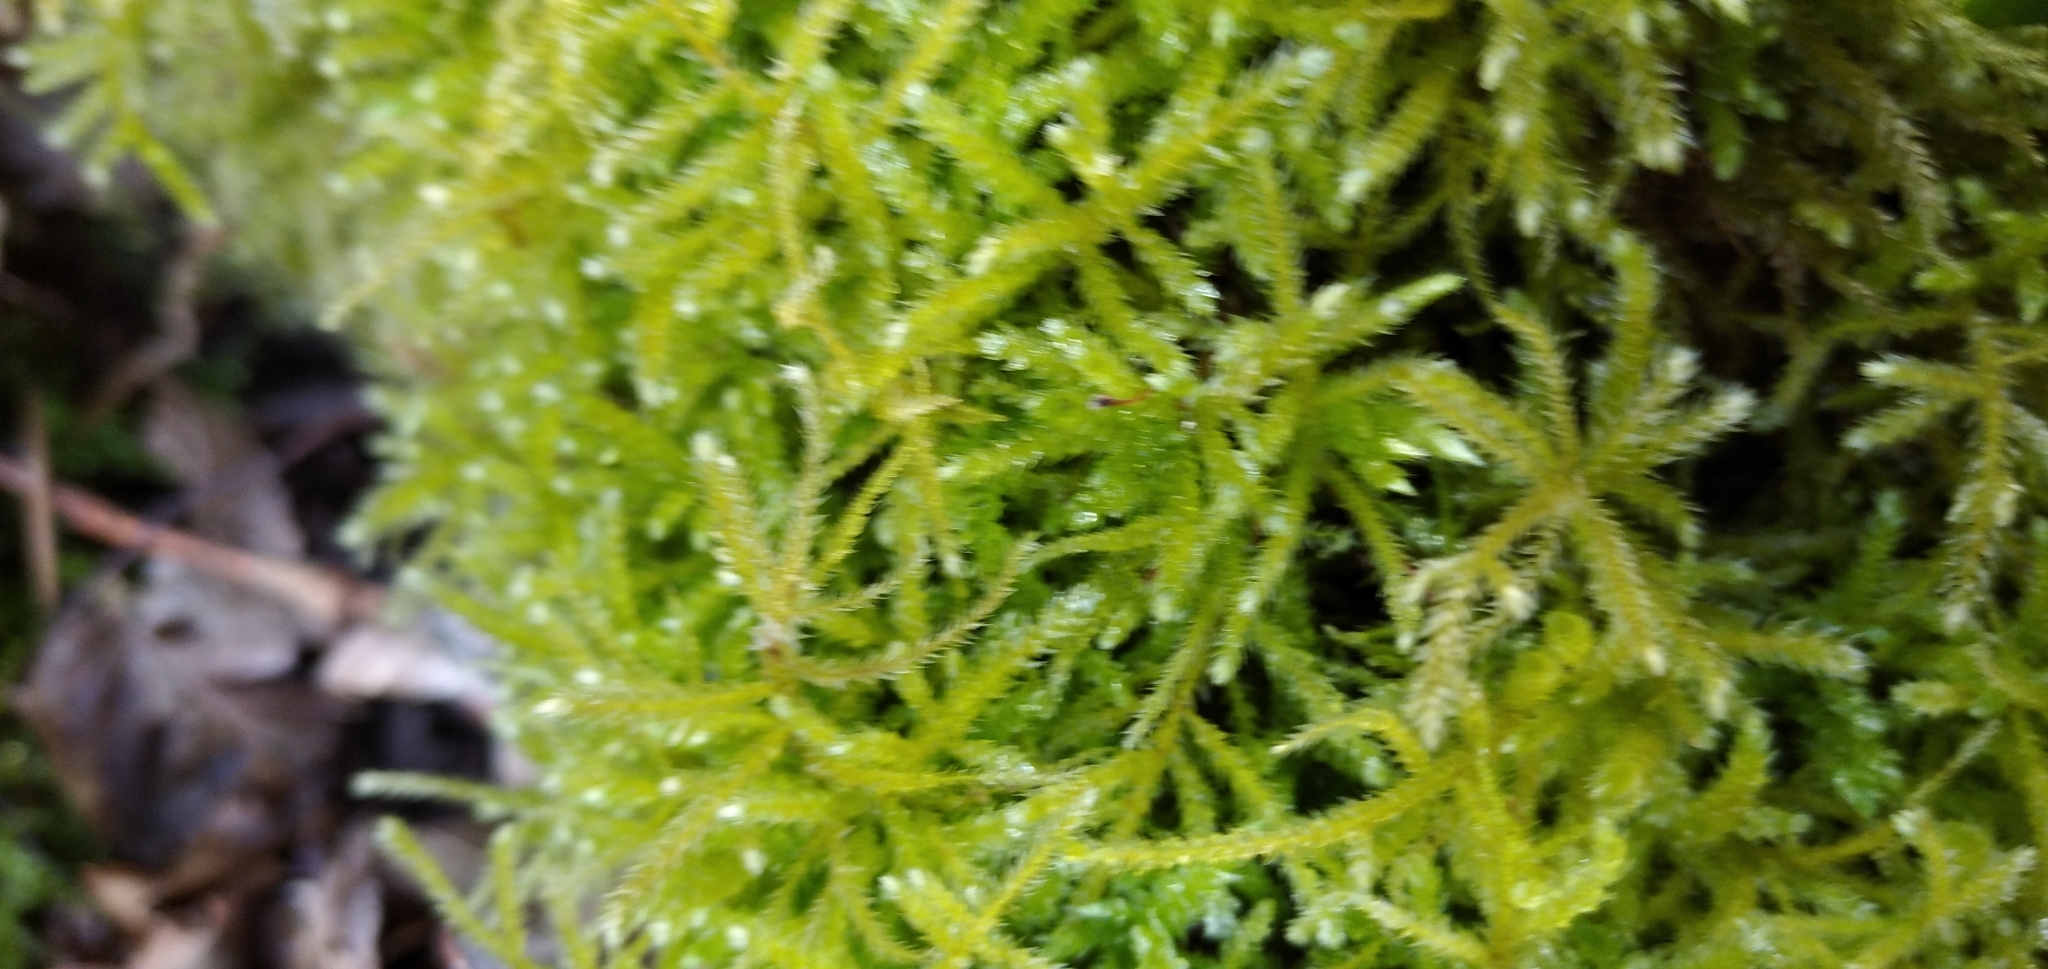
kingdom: Plantae
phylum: Bryophyta
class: Bryopsida
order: Hypnales
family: Brachytheciaceae
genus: Eurhynchium
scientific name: Eurhynchium striatum
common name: Common striated feather-moss
